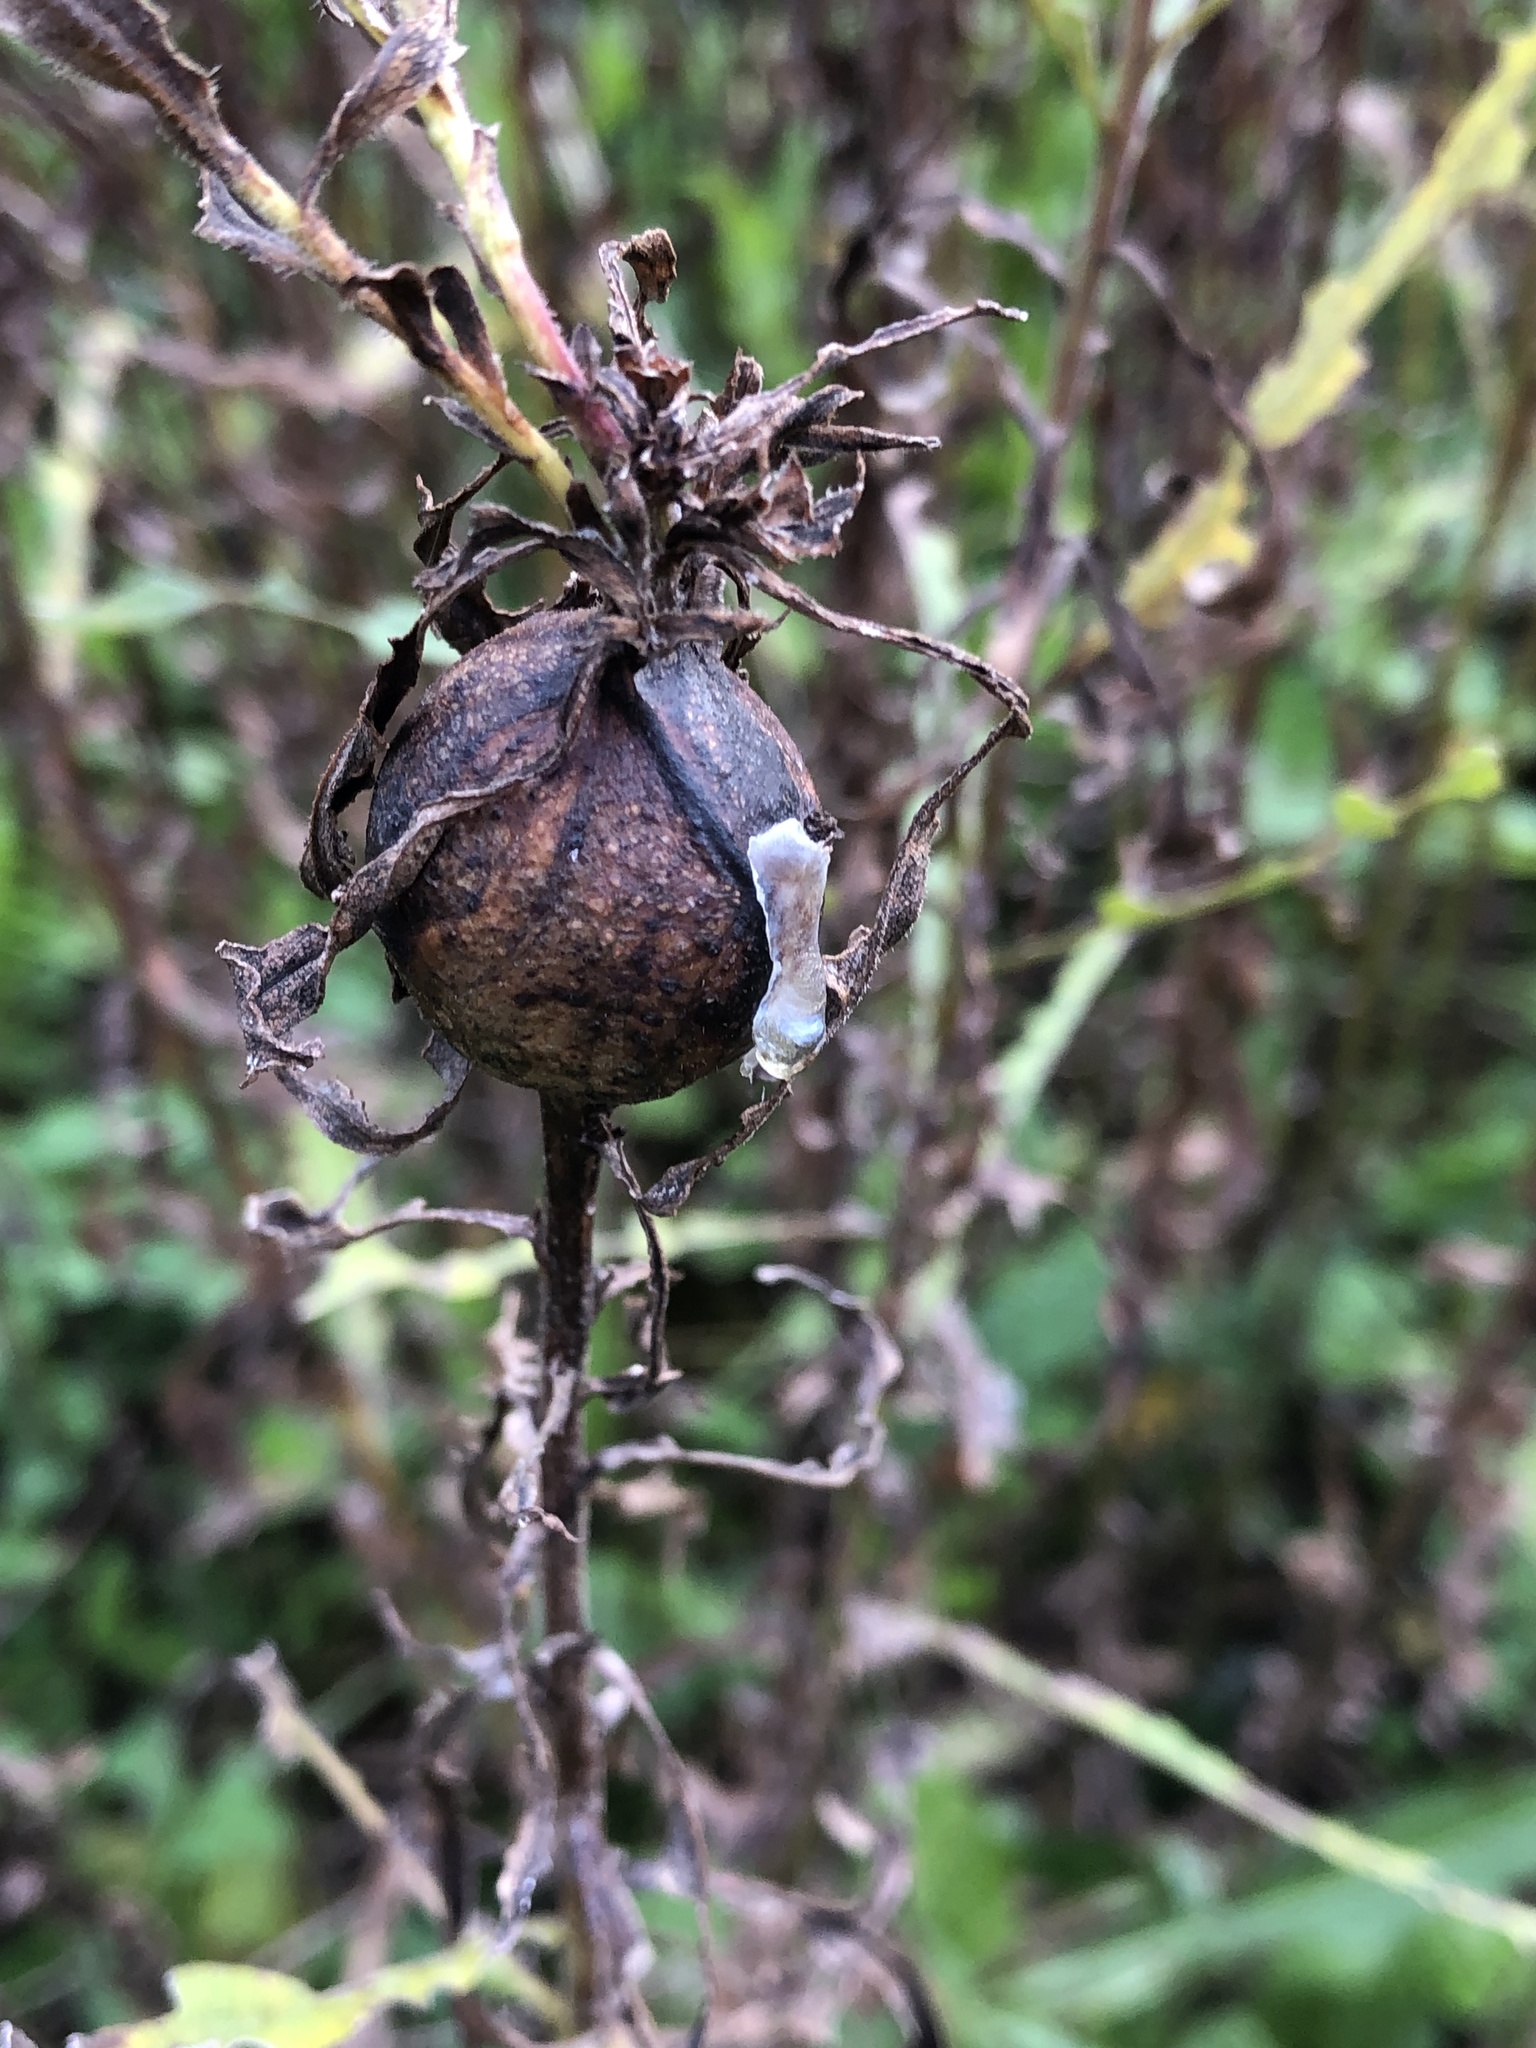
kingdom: Animalia
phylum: Arthropoda
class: Insecta
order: Diptera
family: Tephritidae
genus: Eurosta
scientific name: Eurosta solidaginis
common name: Goldenrod gall fly
